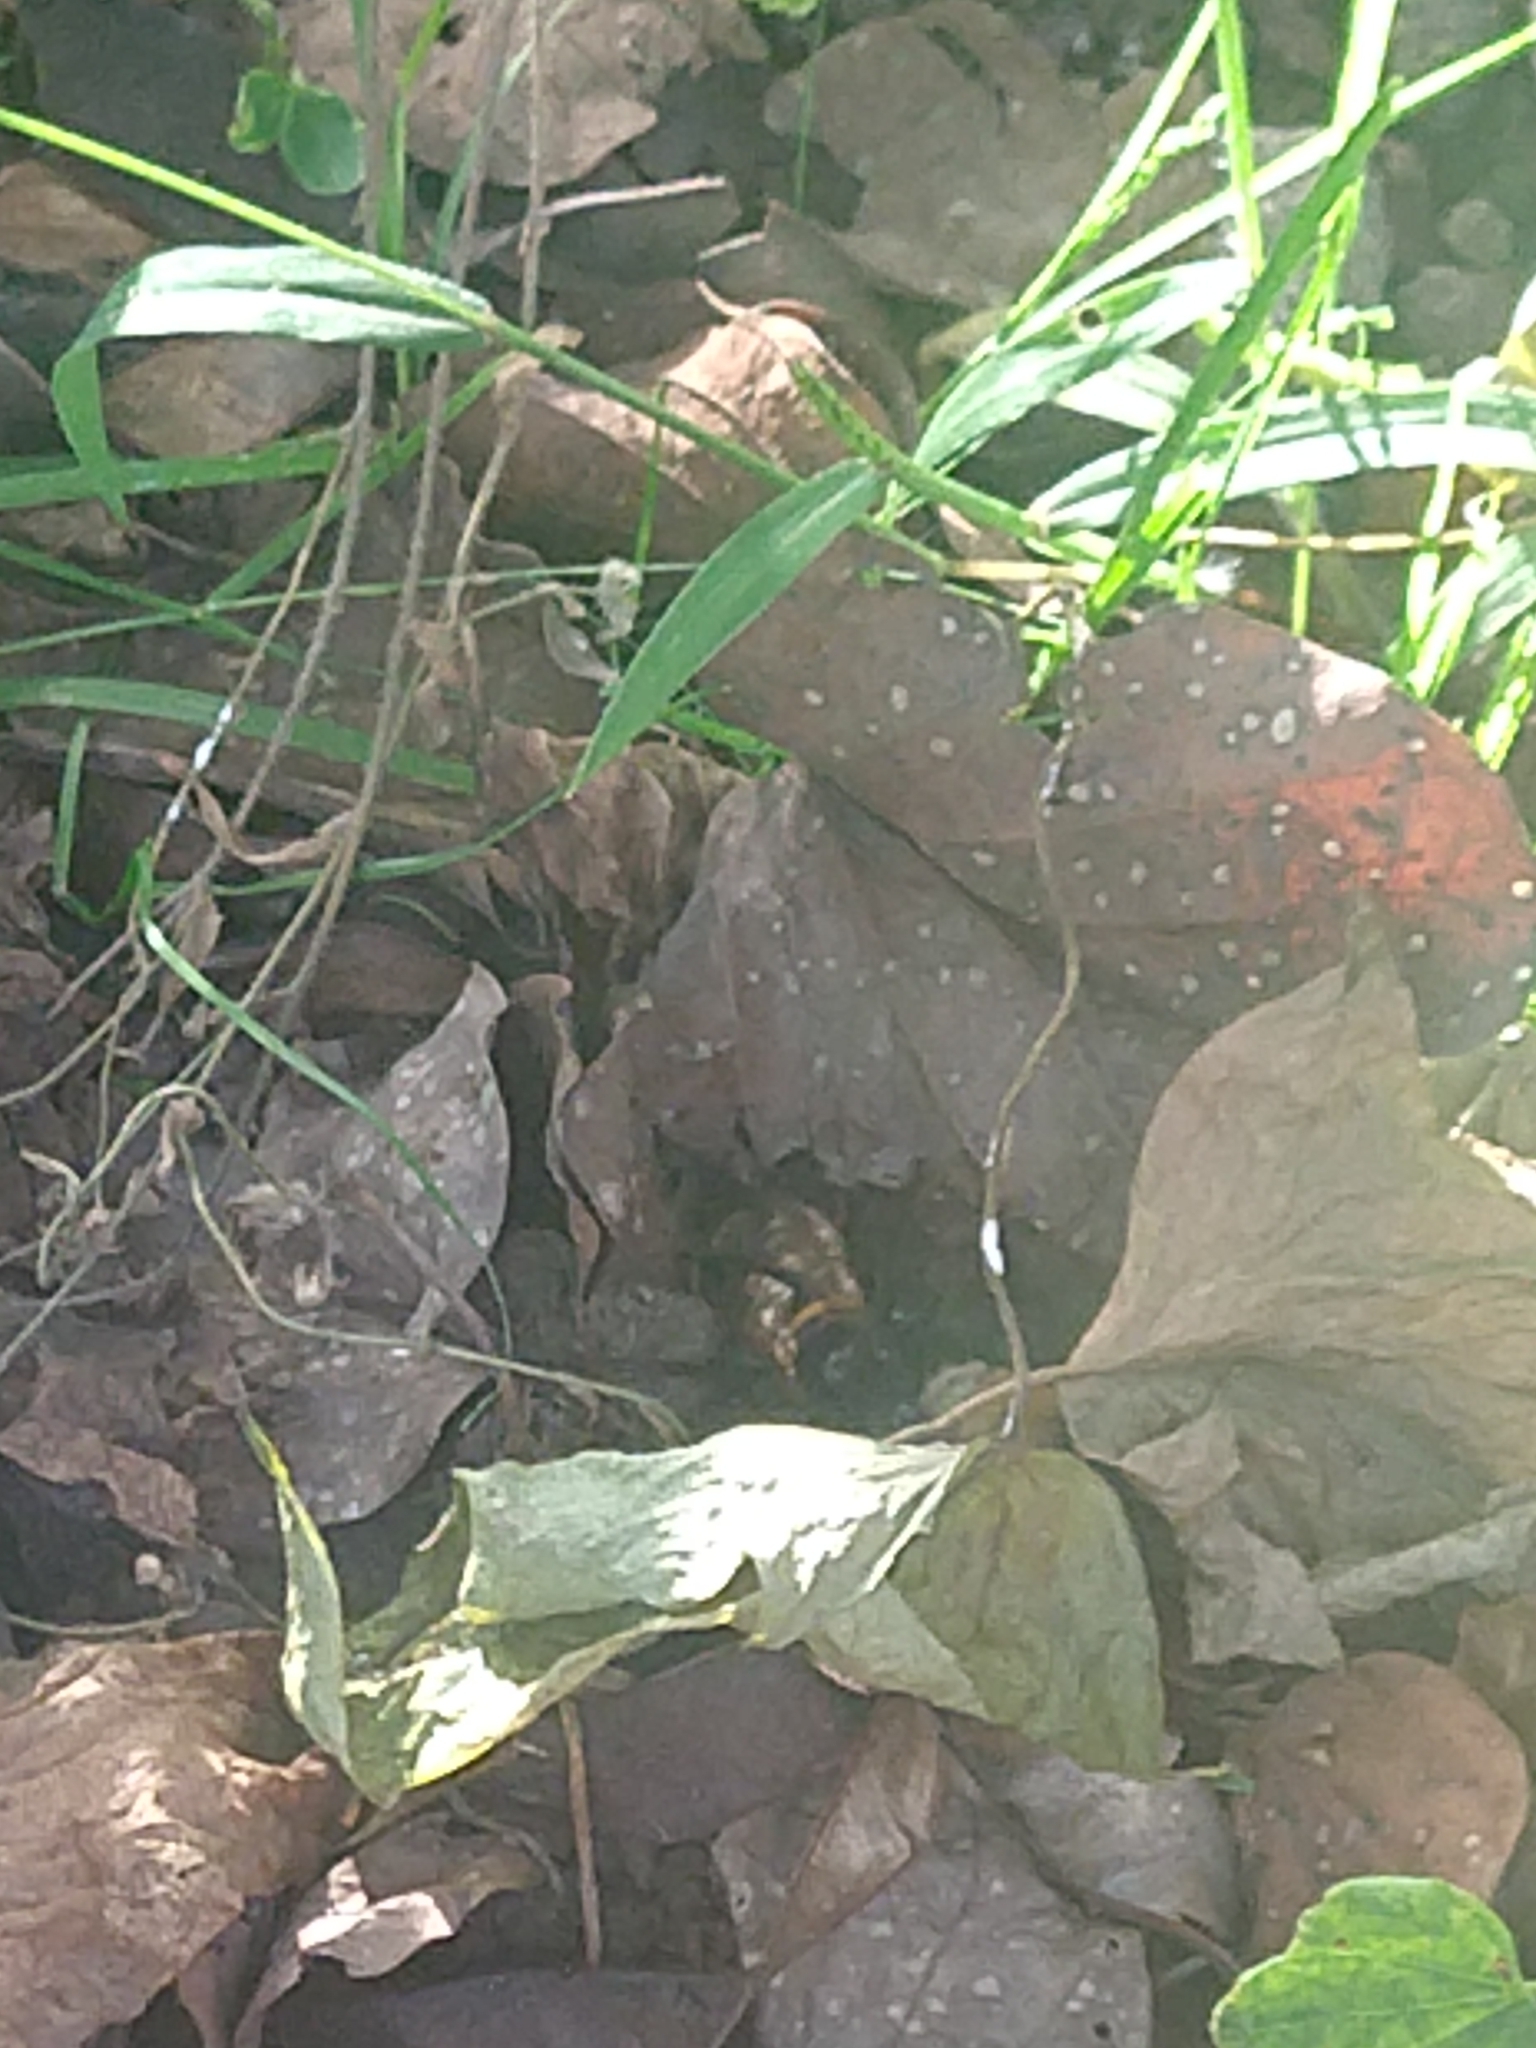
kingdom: Animalia
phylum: Arthropoda
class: Insecta
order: Hymenoptera
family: Apidae
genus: Eulaema
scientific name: Eulaema polychroma
